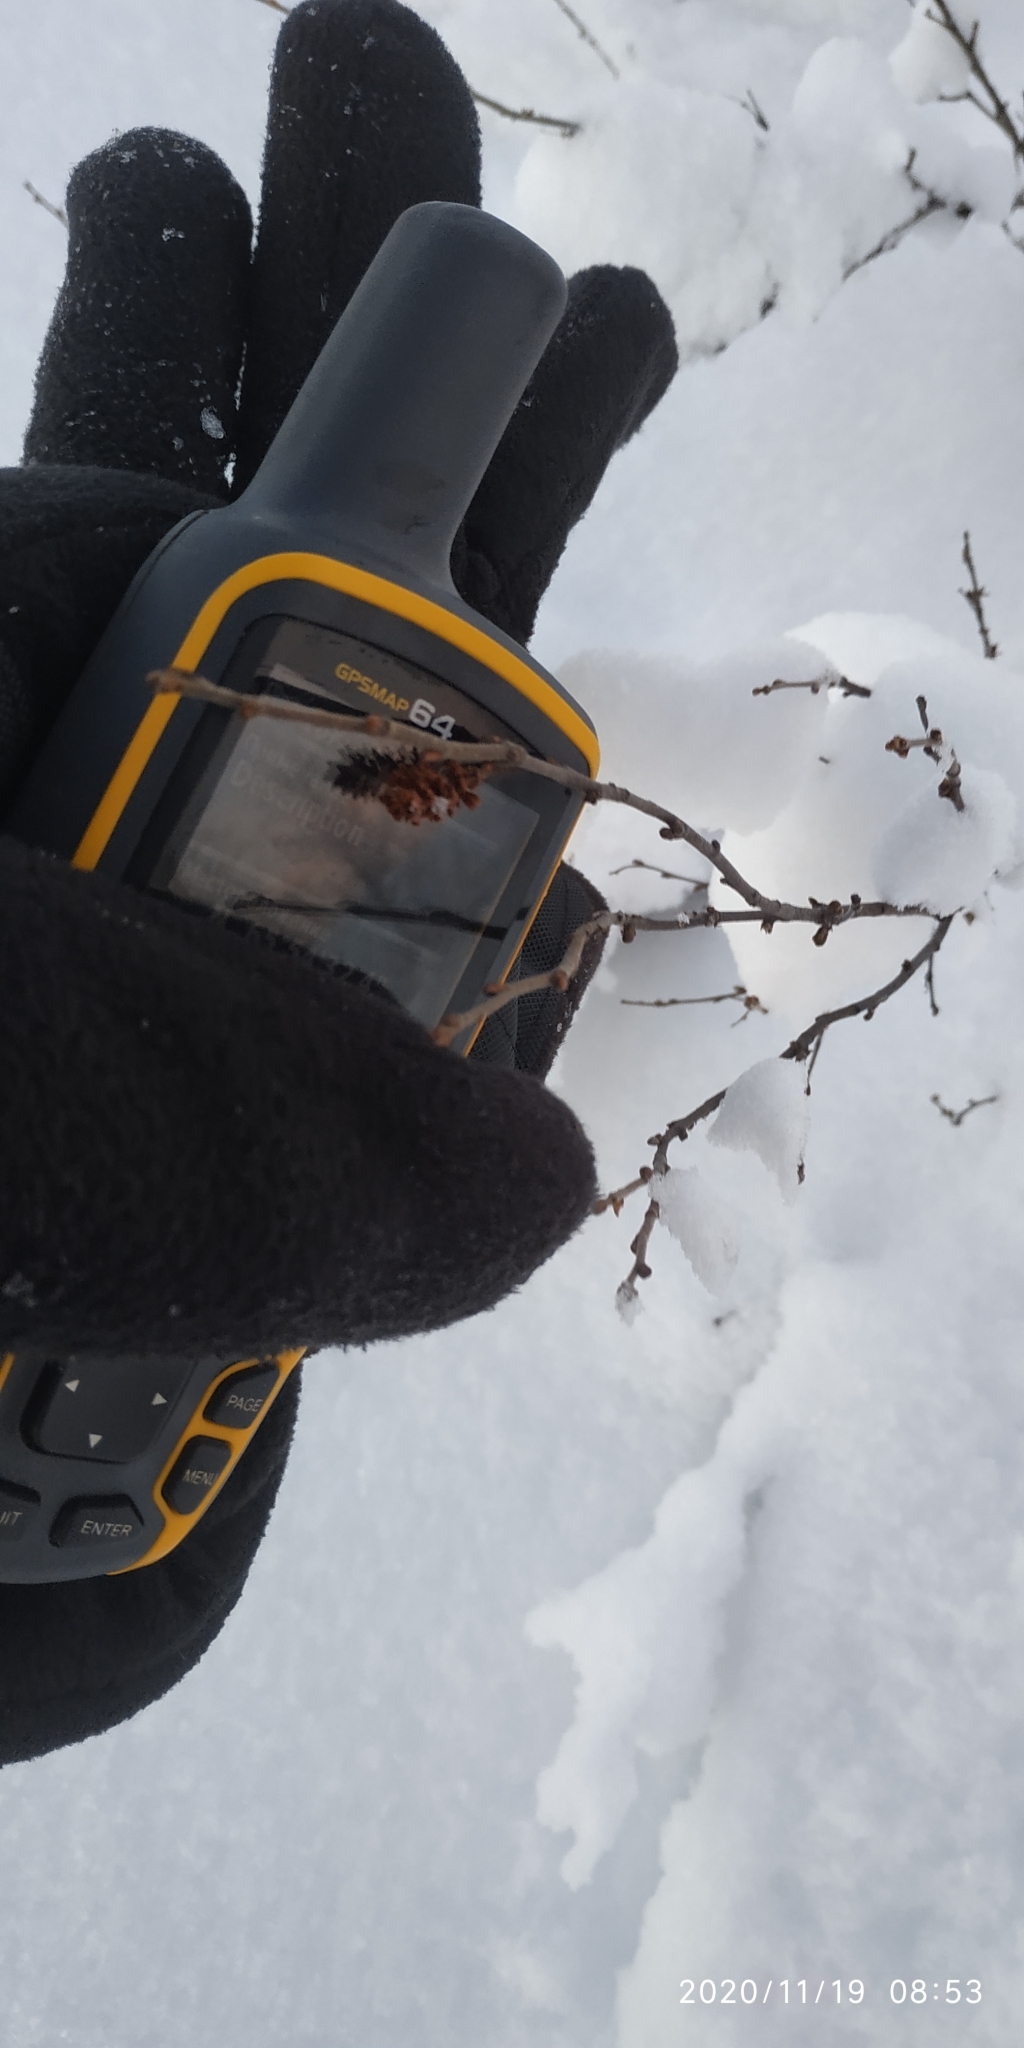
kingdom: Plantae
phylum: Tracheophyta
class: Magnoliopsida
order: Fagales
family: Betulaceae
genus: Betula
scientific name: Betula nana
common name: Arctic dwarf birch
